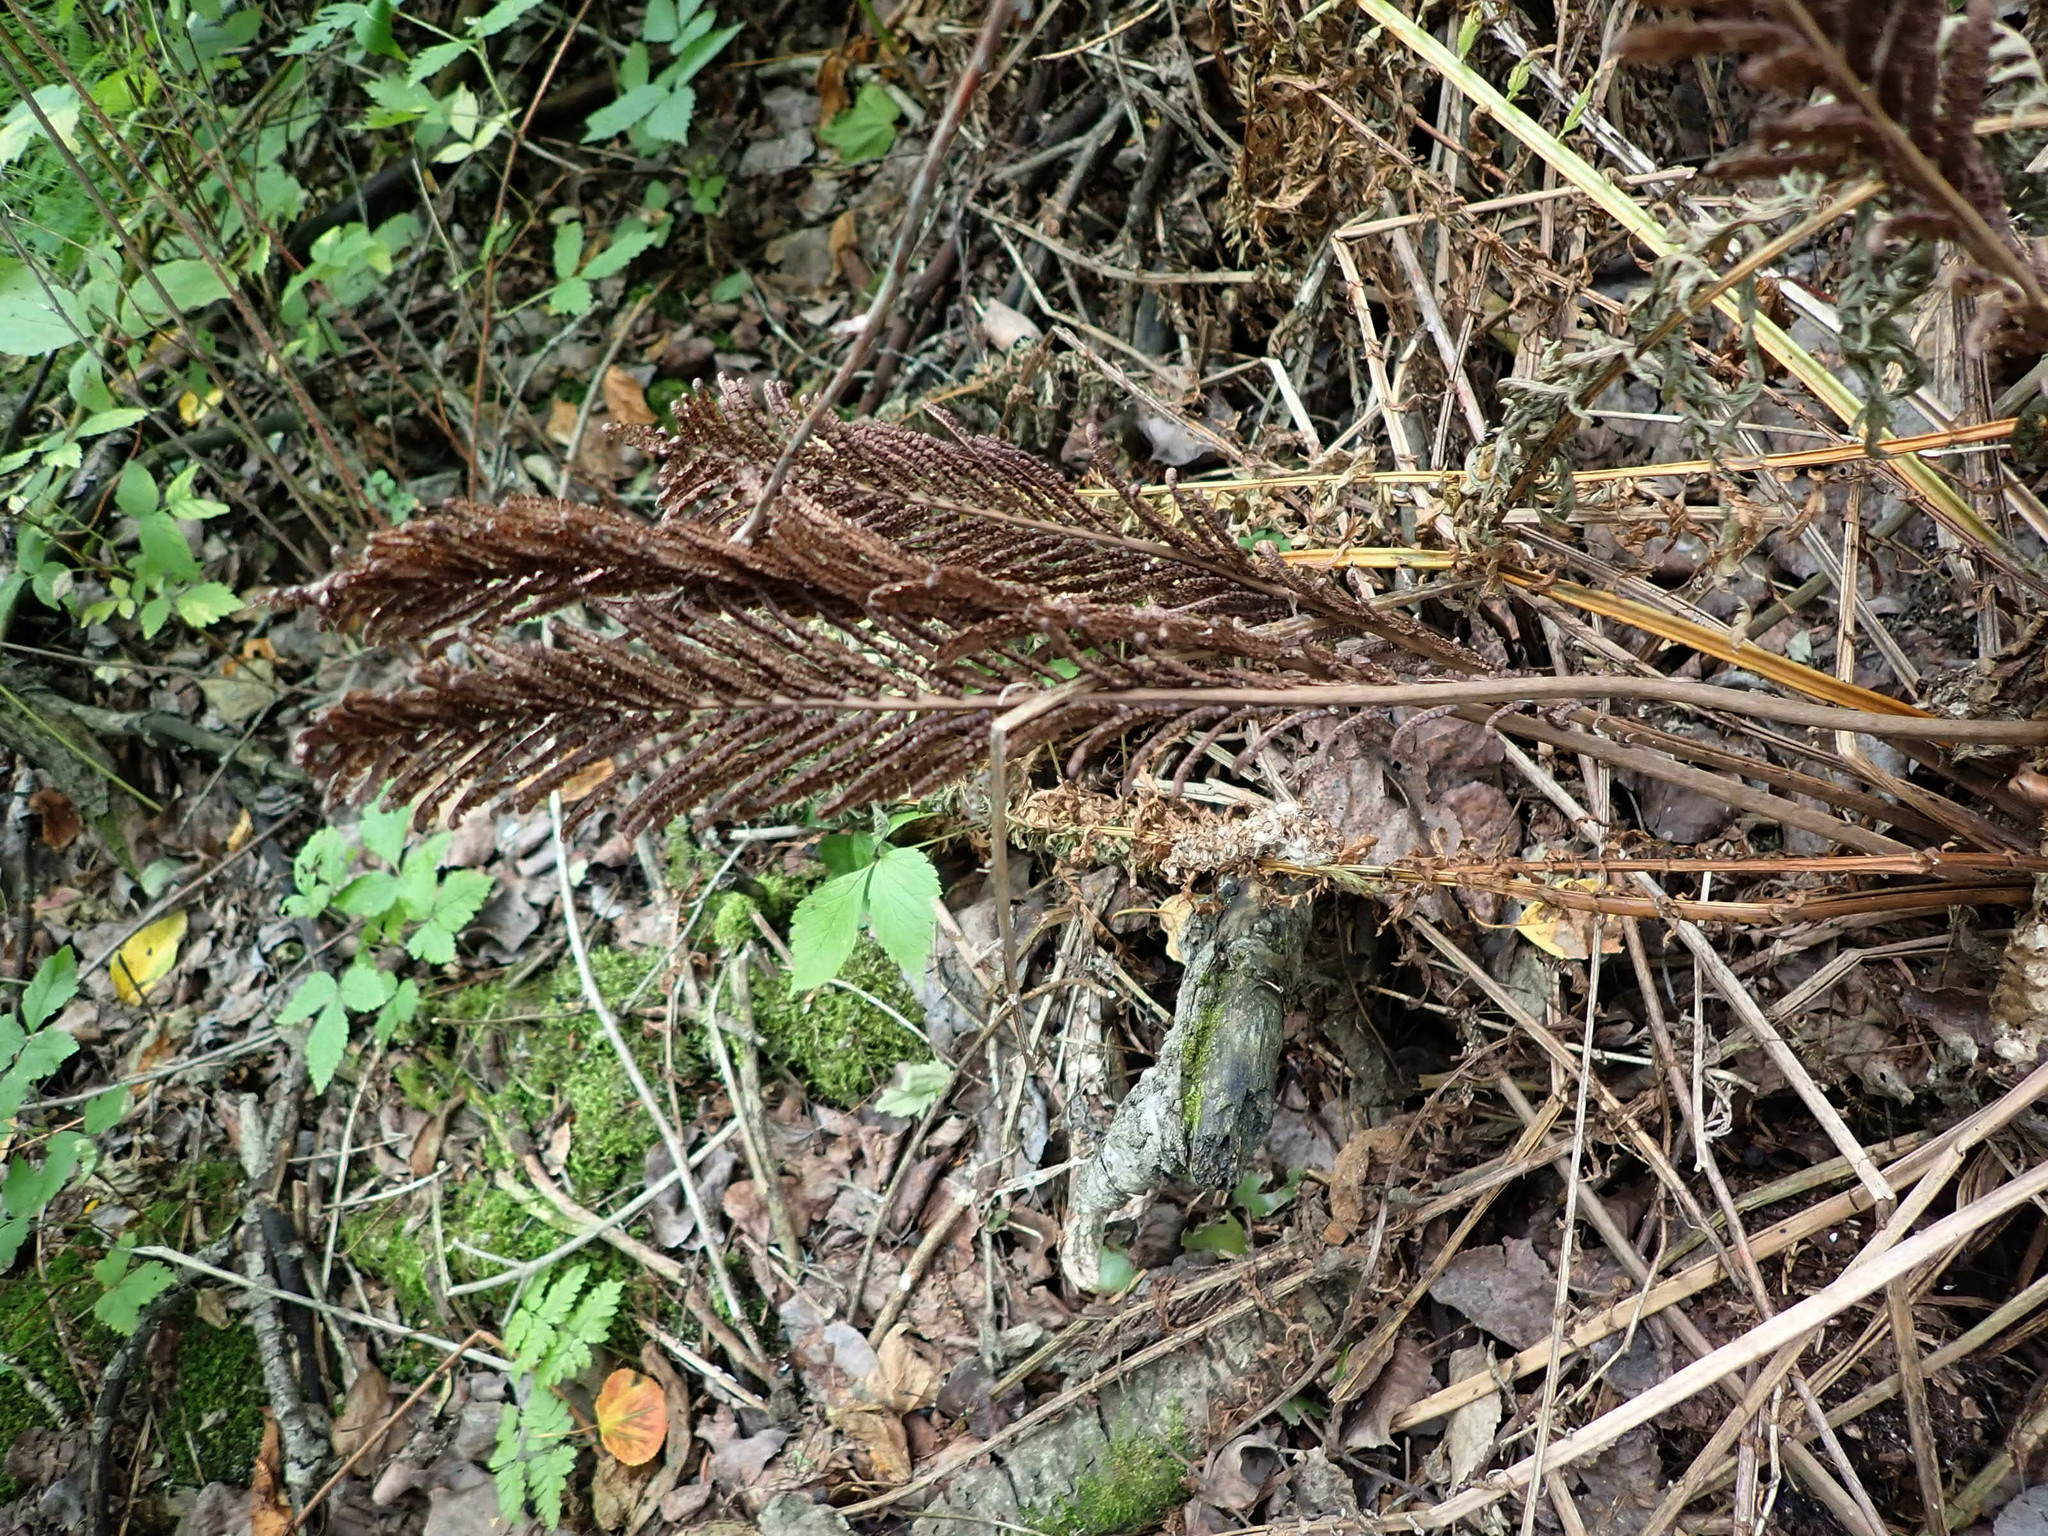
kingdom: Plantae
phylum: Tracheophyta
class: Polypodiopsida
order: Polypodiales
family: Onocleaceae
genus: Matteuccia
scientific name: Matteuccia struthiopteris
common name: Ostrich fern
